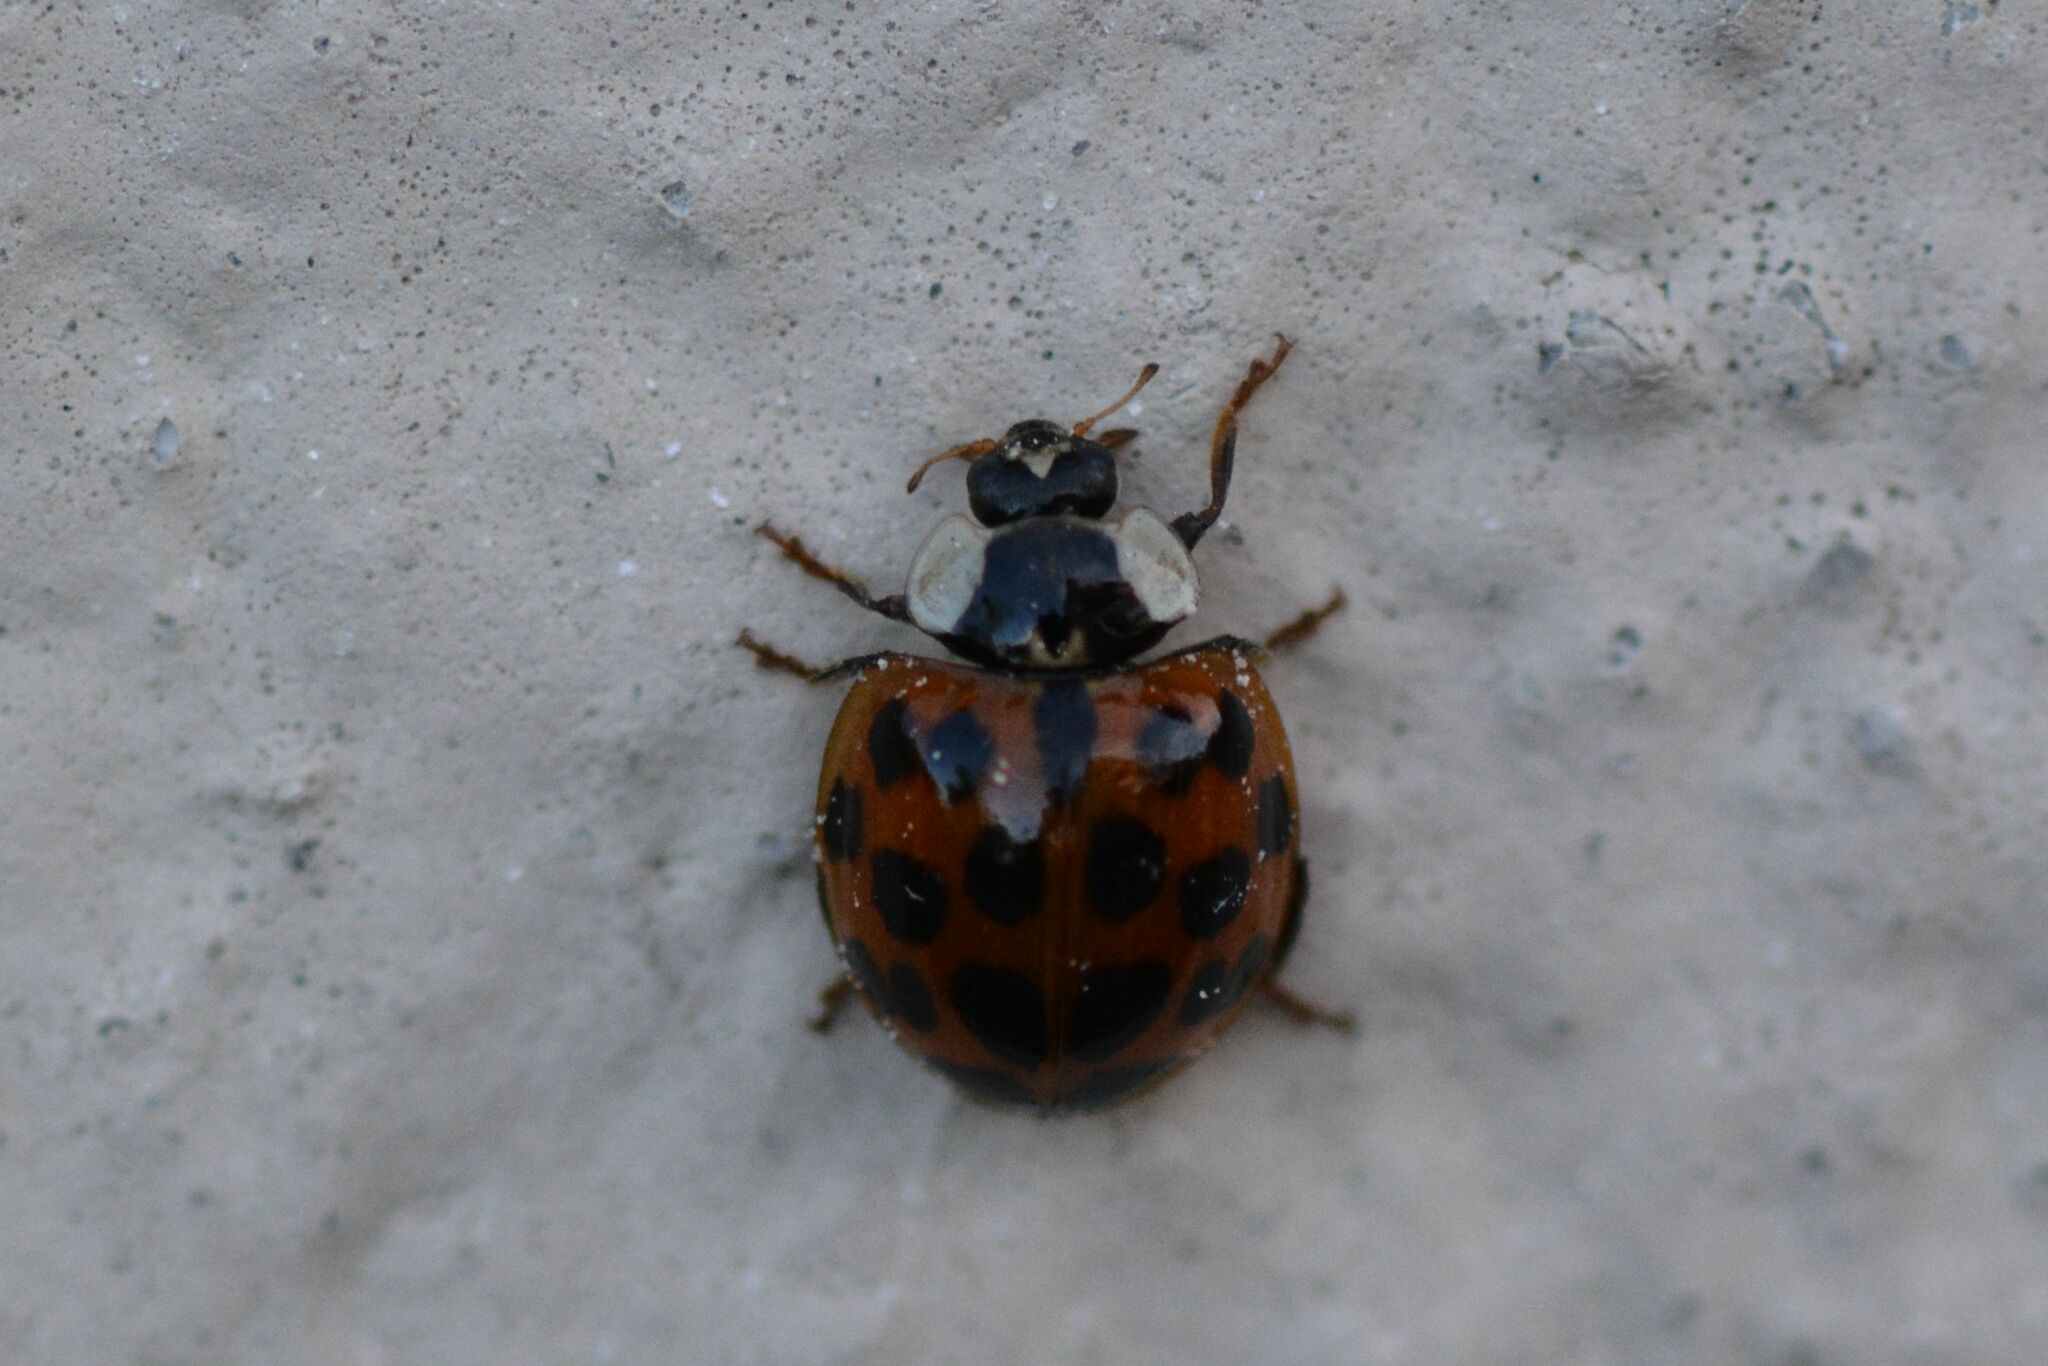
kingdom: Animalia
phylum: Arthropoda
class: Insecta
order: Coleoptera
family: Coccinellidae
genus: Harmonia
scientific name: Harmonia axyridis
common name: Harlequin ladybird
